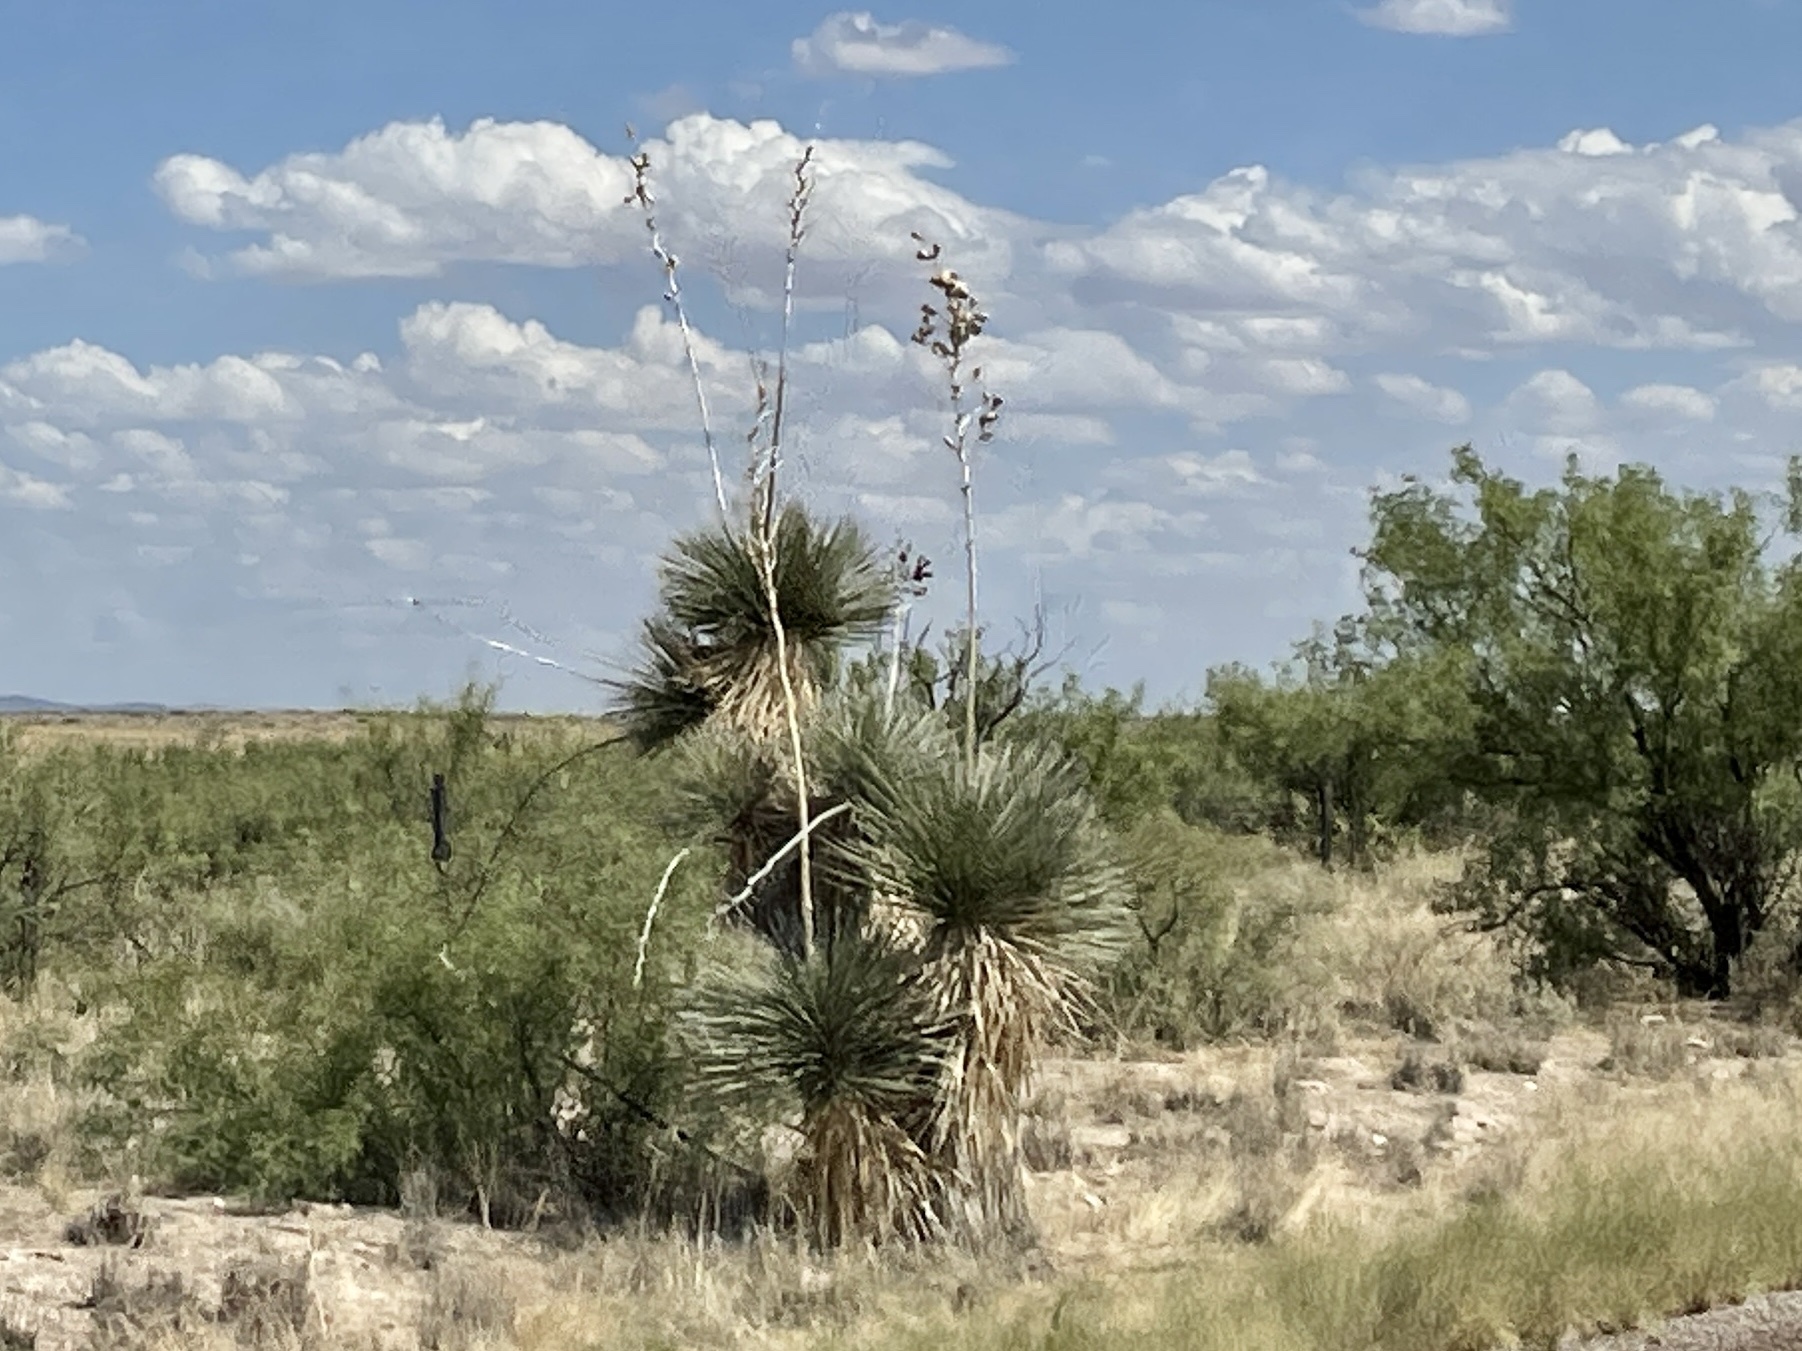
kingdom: Plantae
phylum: Tracheophyta
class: Liliopsida
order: Asparagales
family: Asparagaceae
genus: Yucca
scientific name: Yucca elata
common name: Palmella
